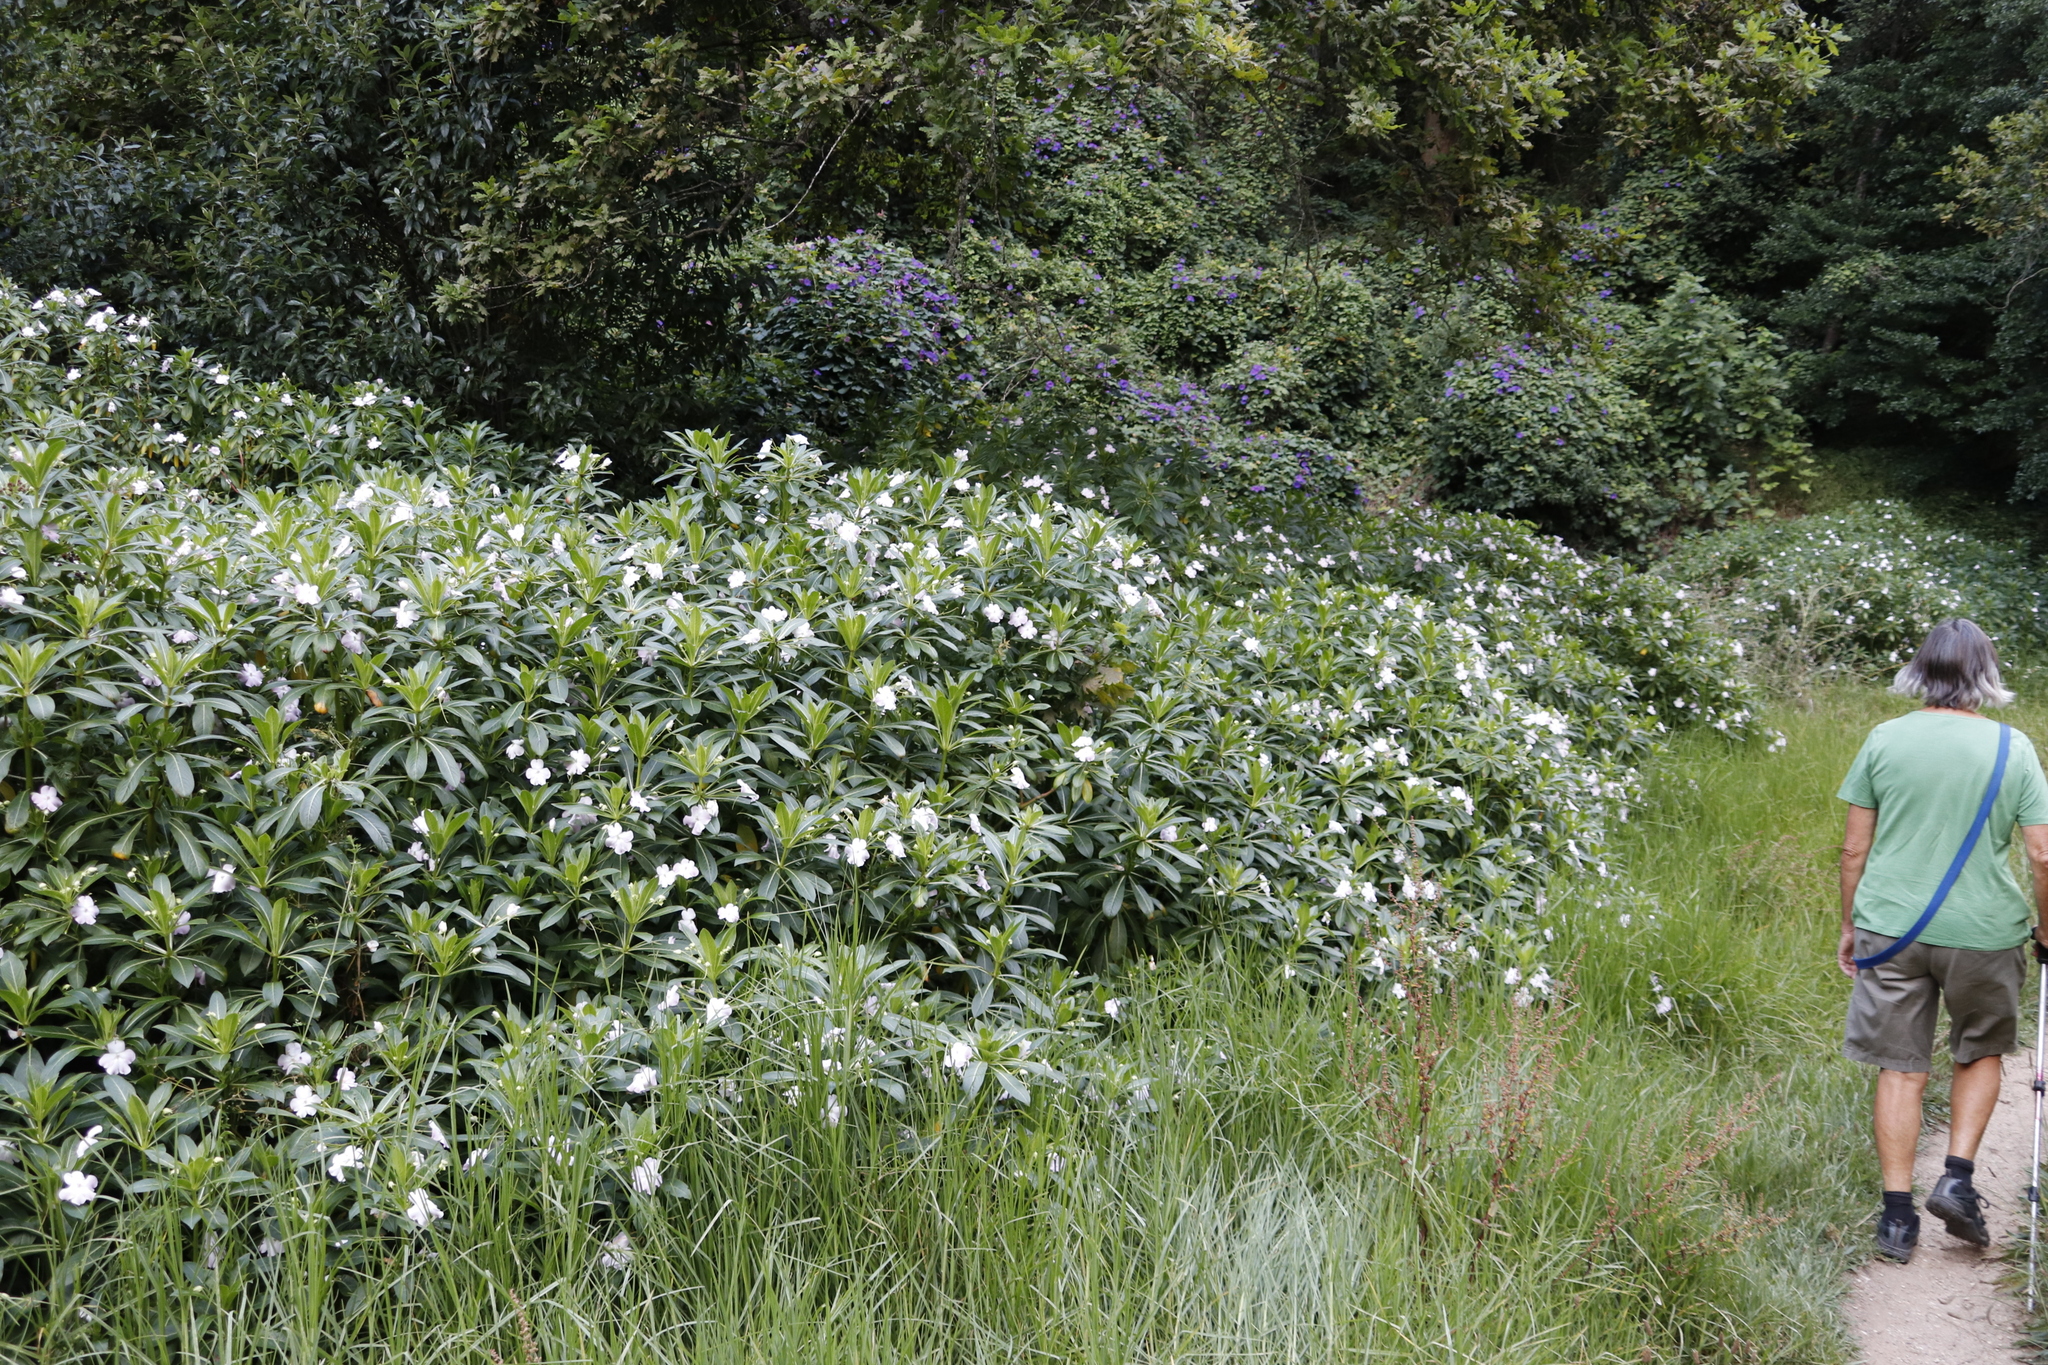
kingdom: Plantae
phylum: Tracheophyta
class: Magnoliopsida
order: Ericales
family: Balsaminaceae
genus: Impatiens
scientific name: Impatiens sodenii
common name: Oliver's touch-me-not
